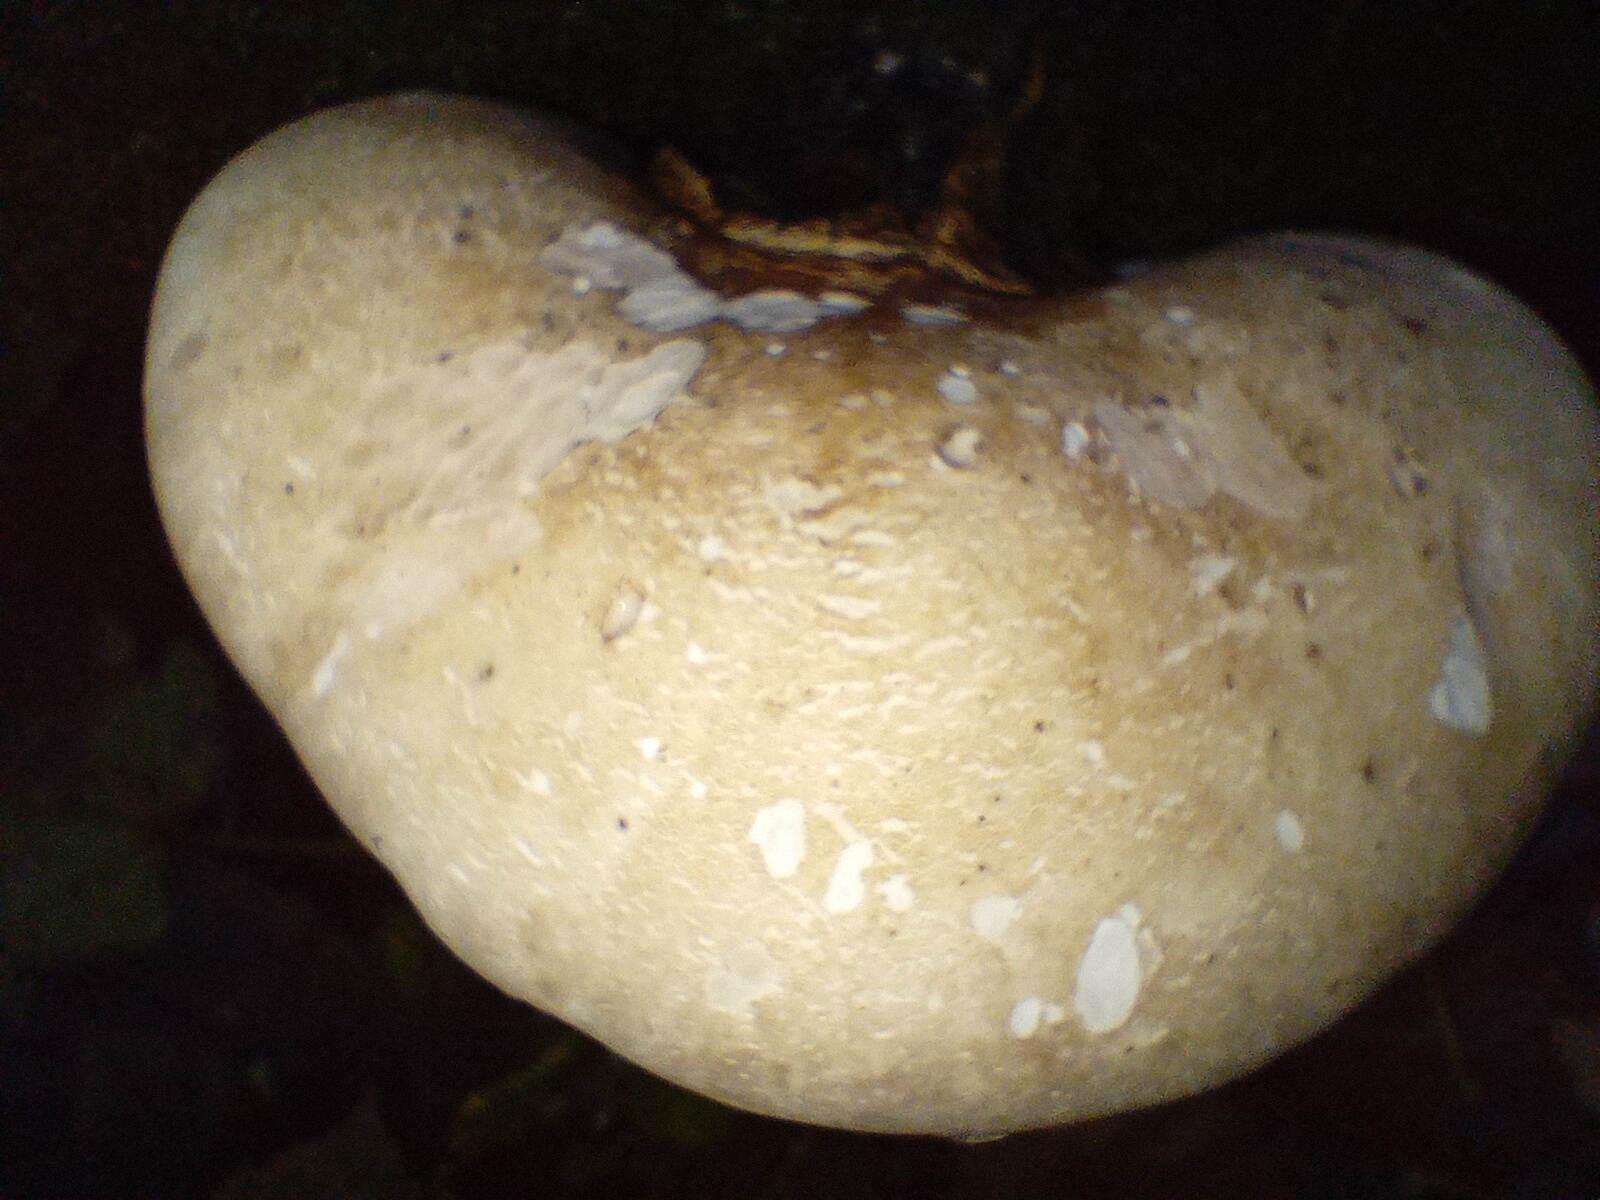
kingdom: Fungi
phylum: Basidiomycota
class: Agaricomycetes
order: Polyporales
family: Fomitopsidaceae
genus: Fomitopsis
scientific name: Fomitopsis betulina
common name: Birch polypore
